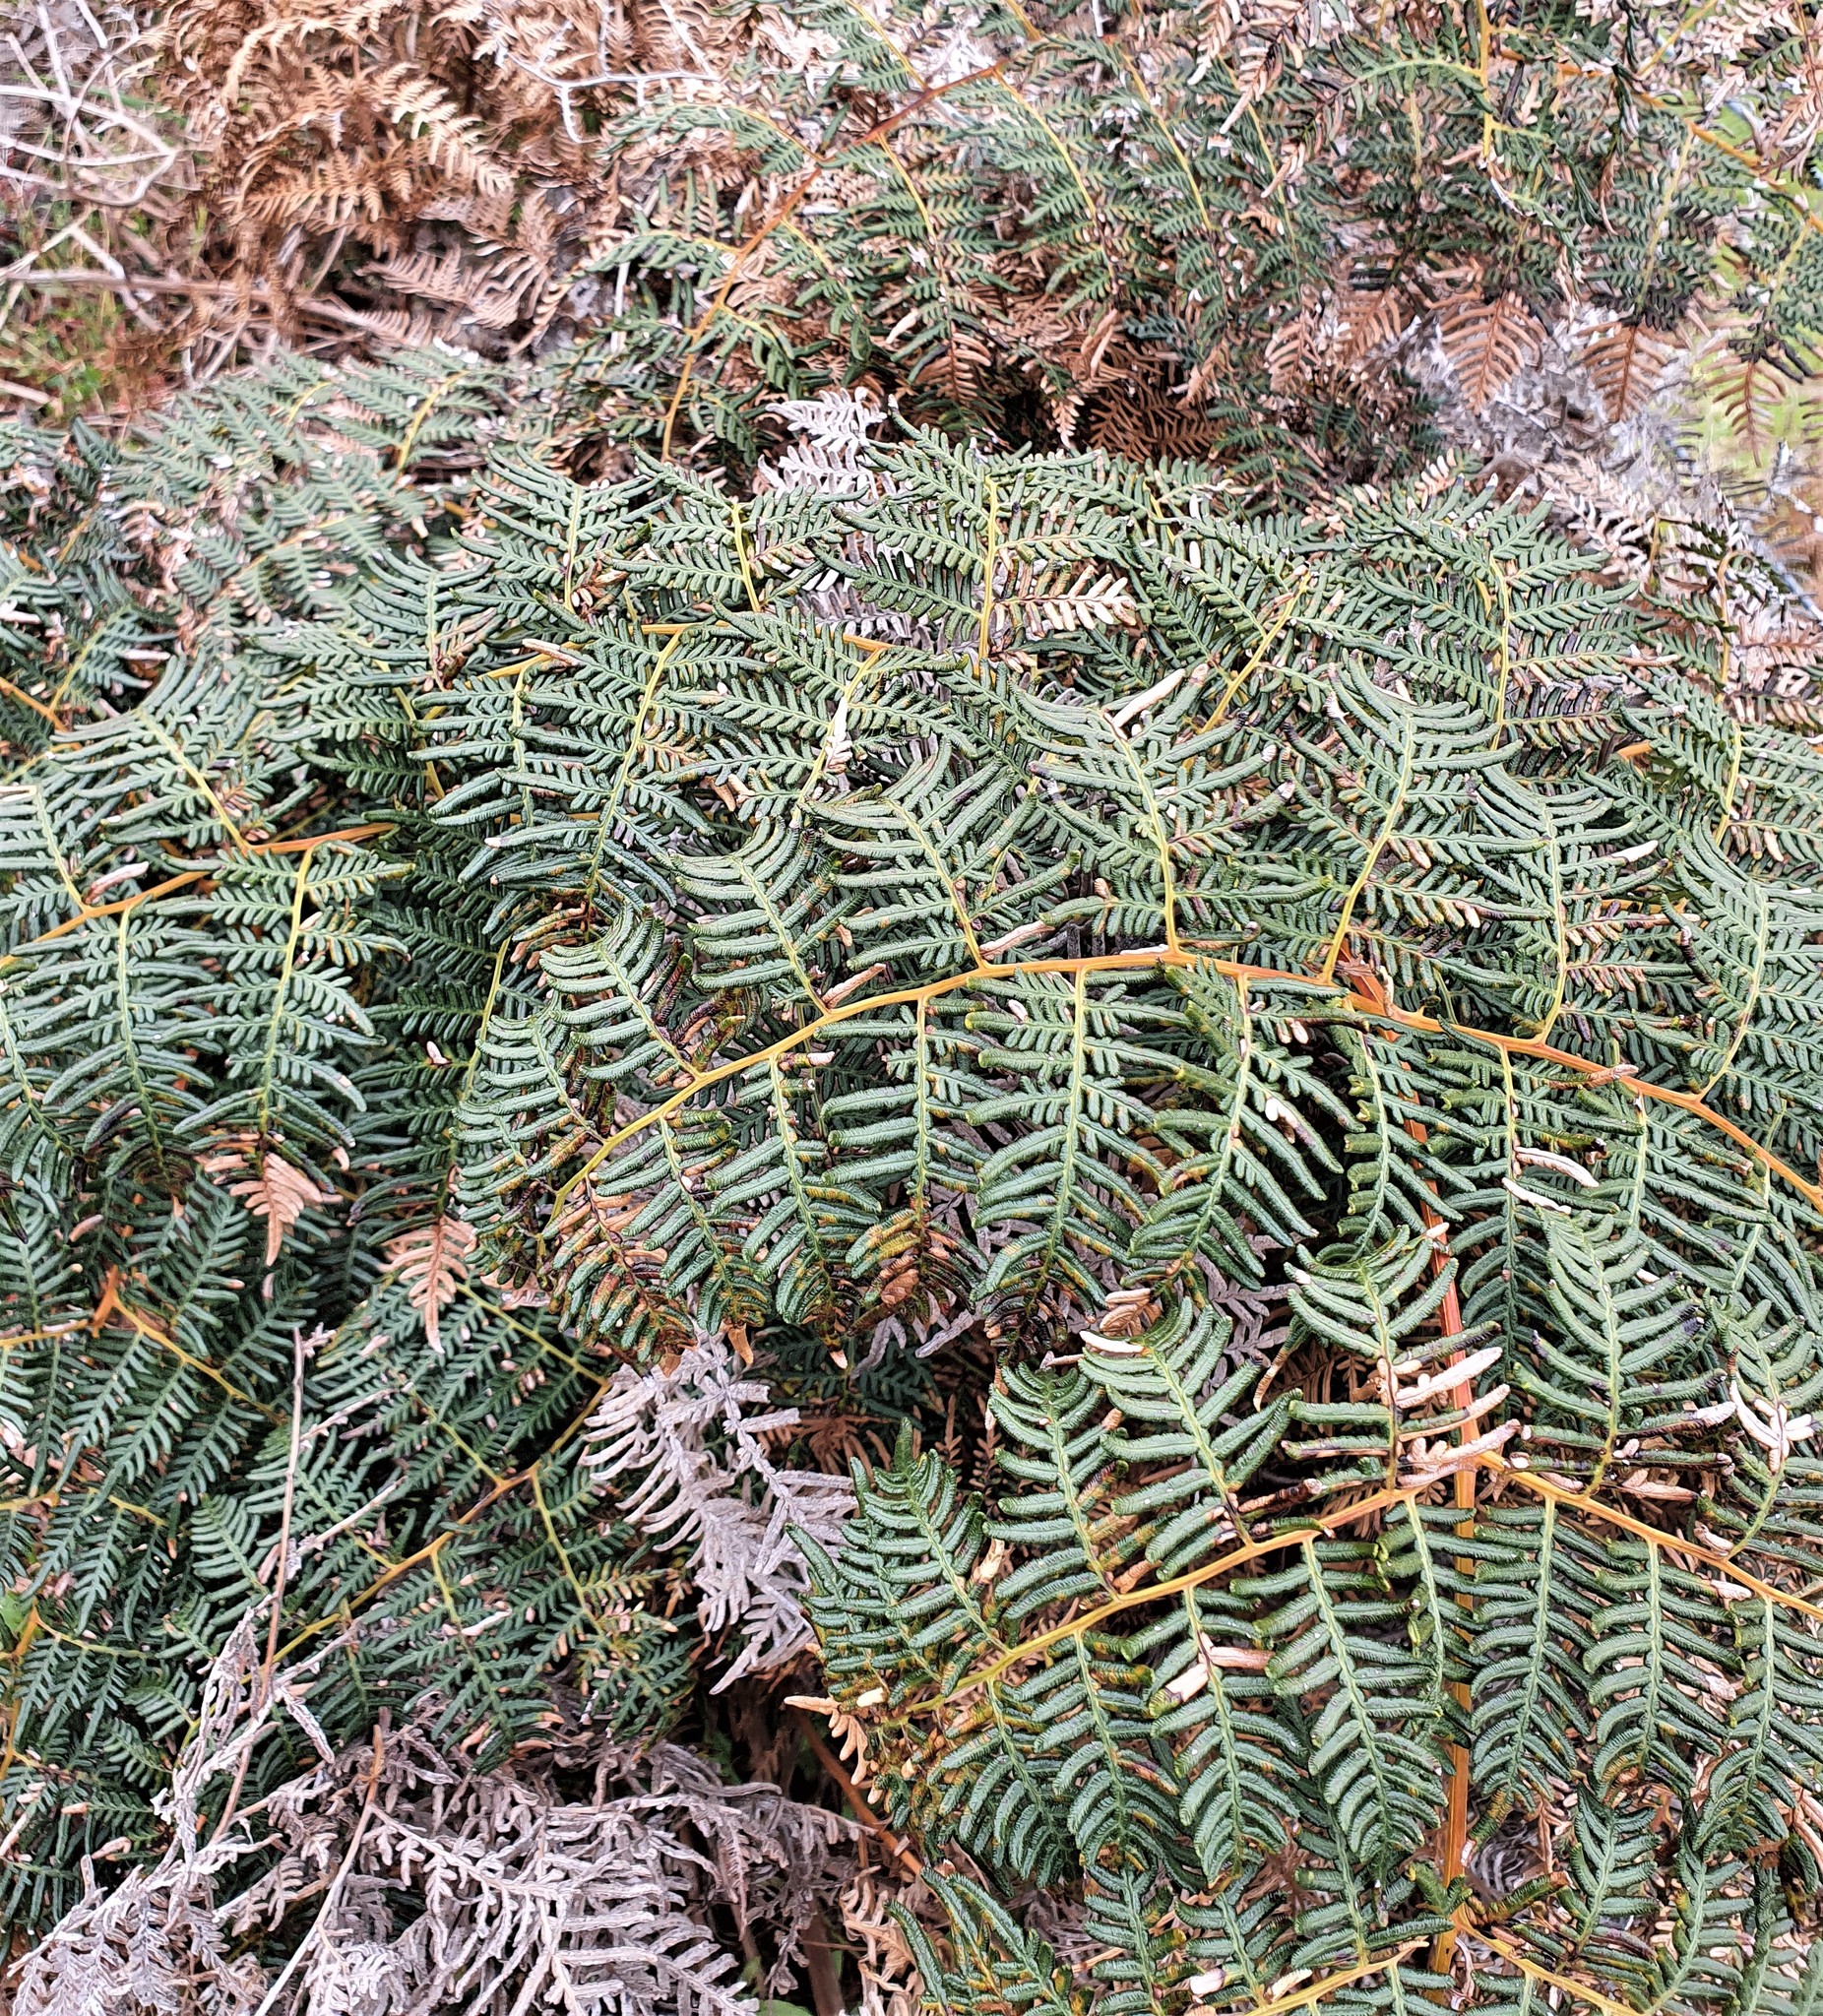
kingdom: Plantae
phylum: Tracheophyta
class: Polypodiopsida
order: Polypodiales
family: Dennstaedtiaceae
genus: Pteridium
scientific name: Pteridium esculentum
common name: Bracken fern
